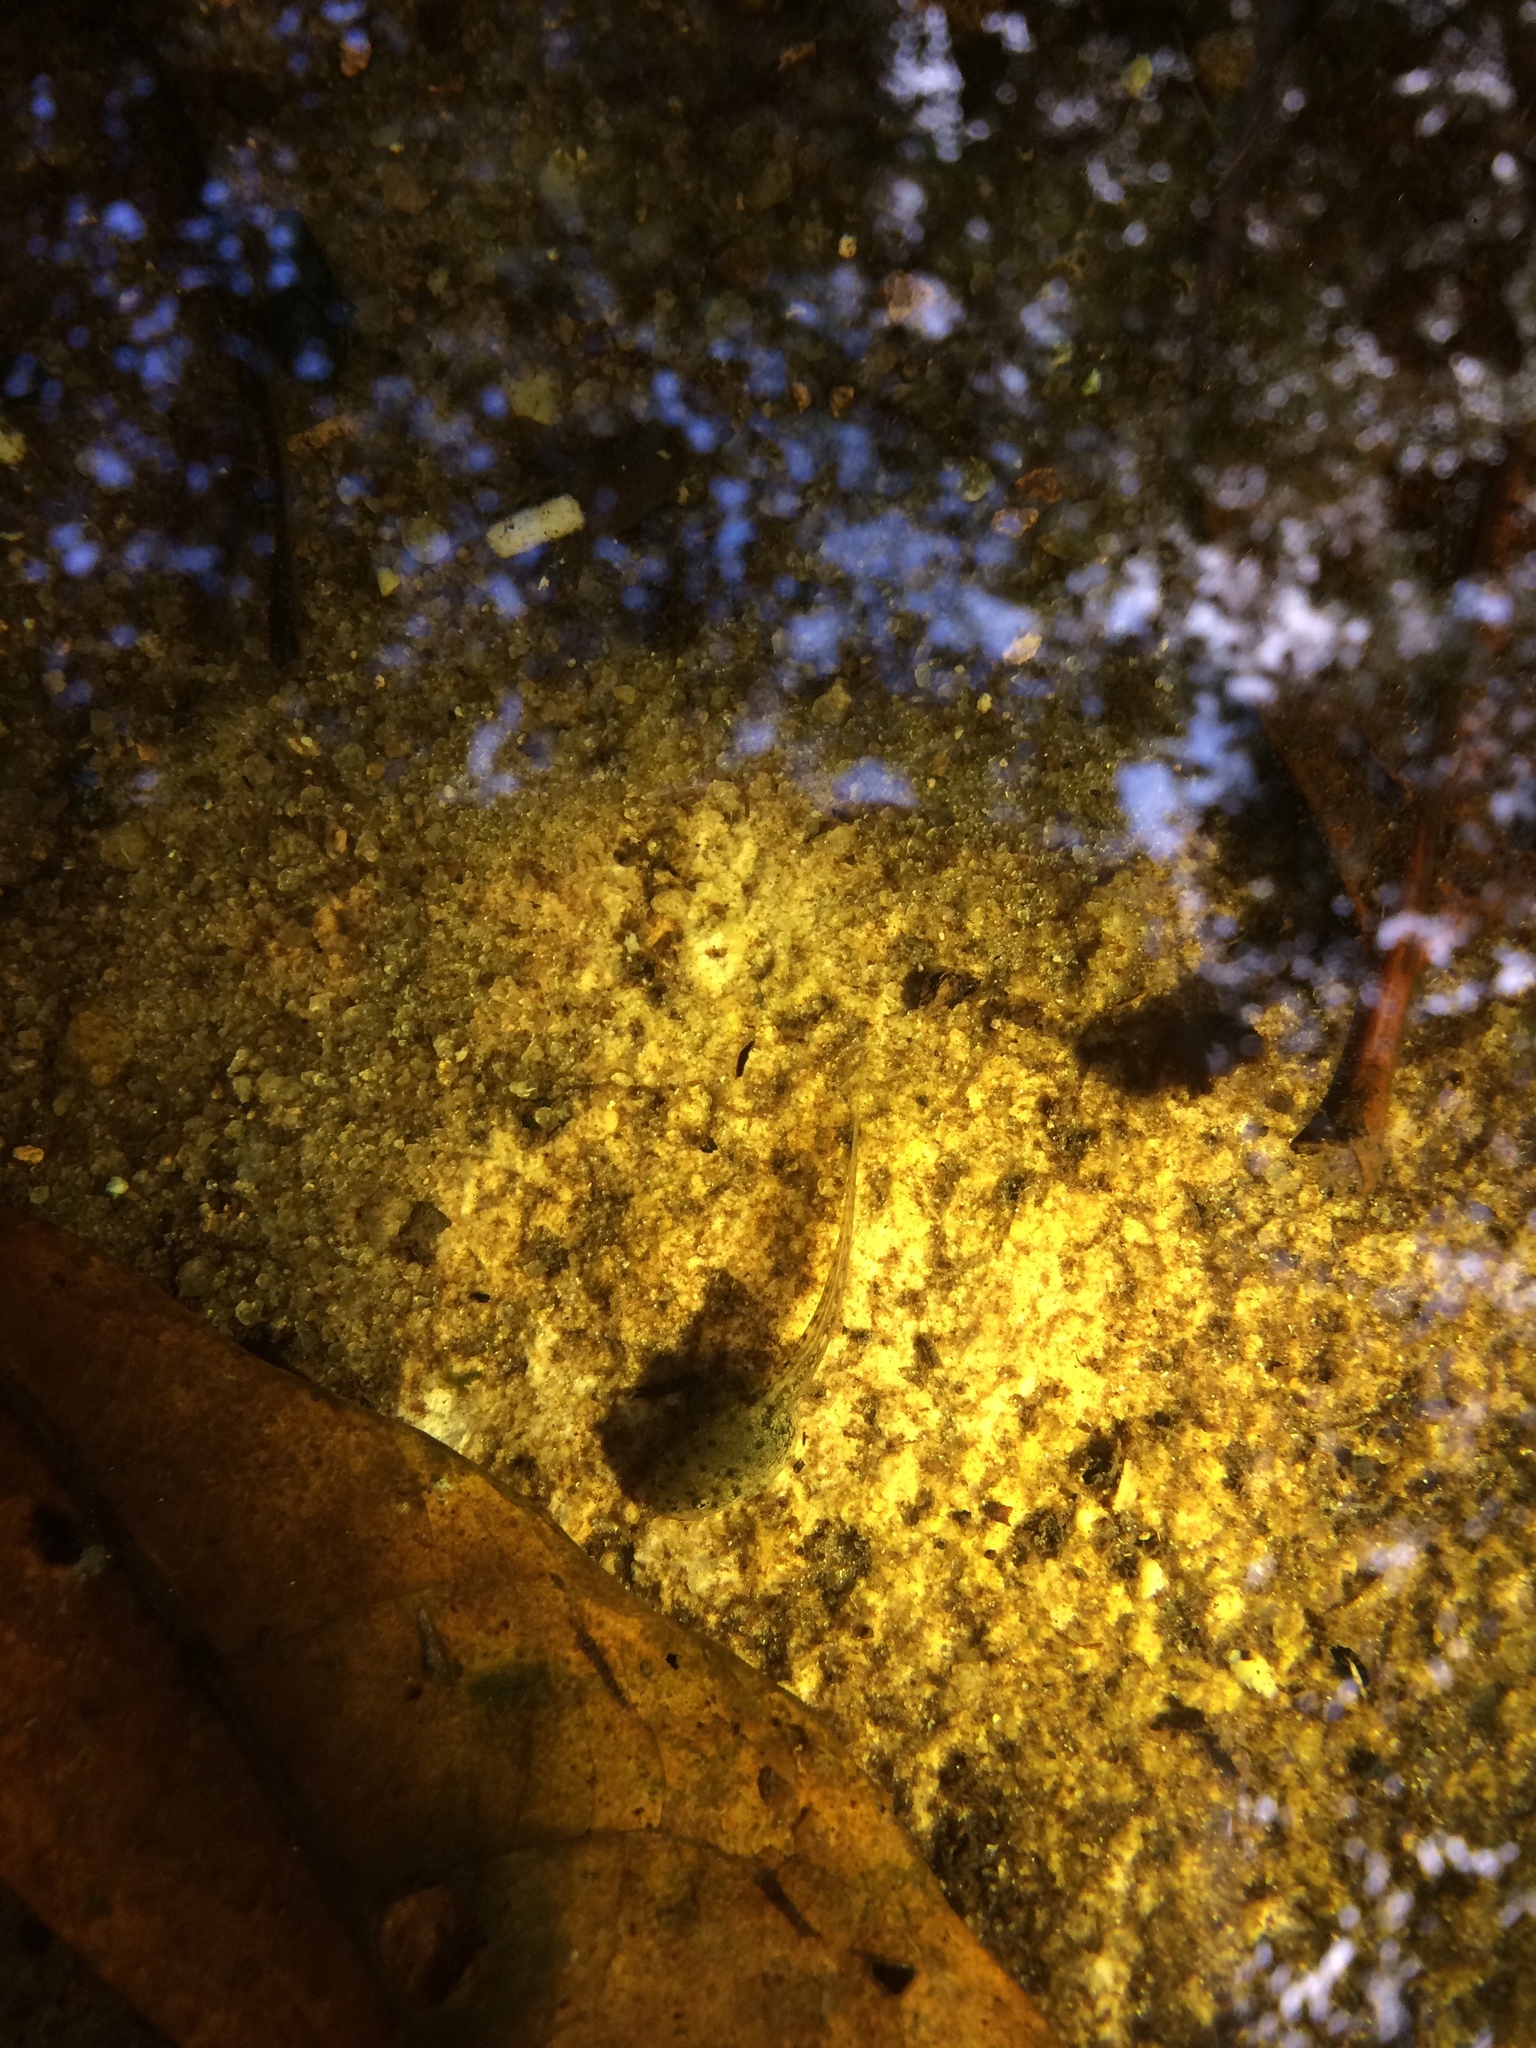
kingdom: Animalia
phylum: Chordata
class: Amphibia
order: Anura
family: Hylidae
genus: Aplastodiscus
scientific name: Aplastodiscus sibilatus
